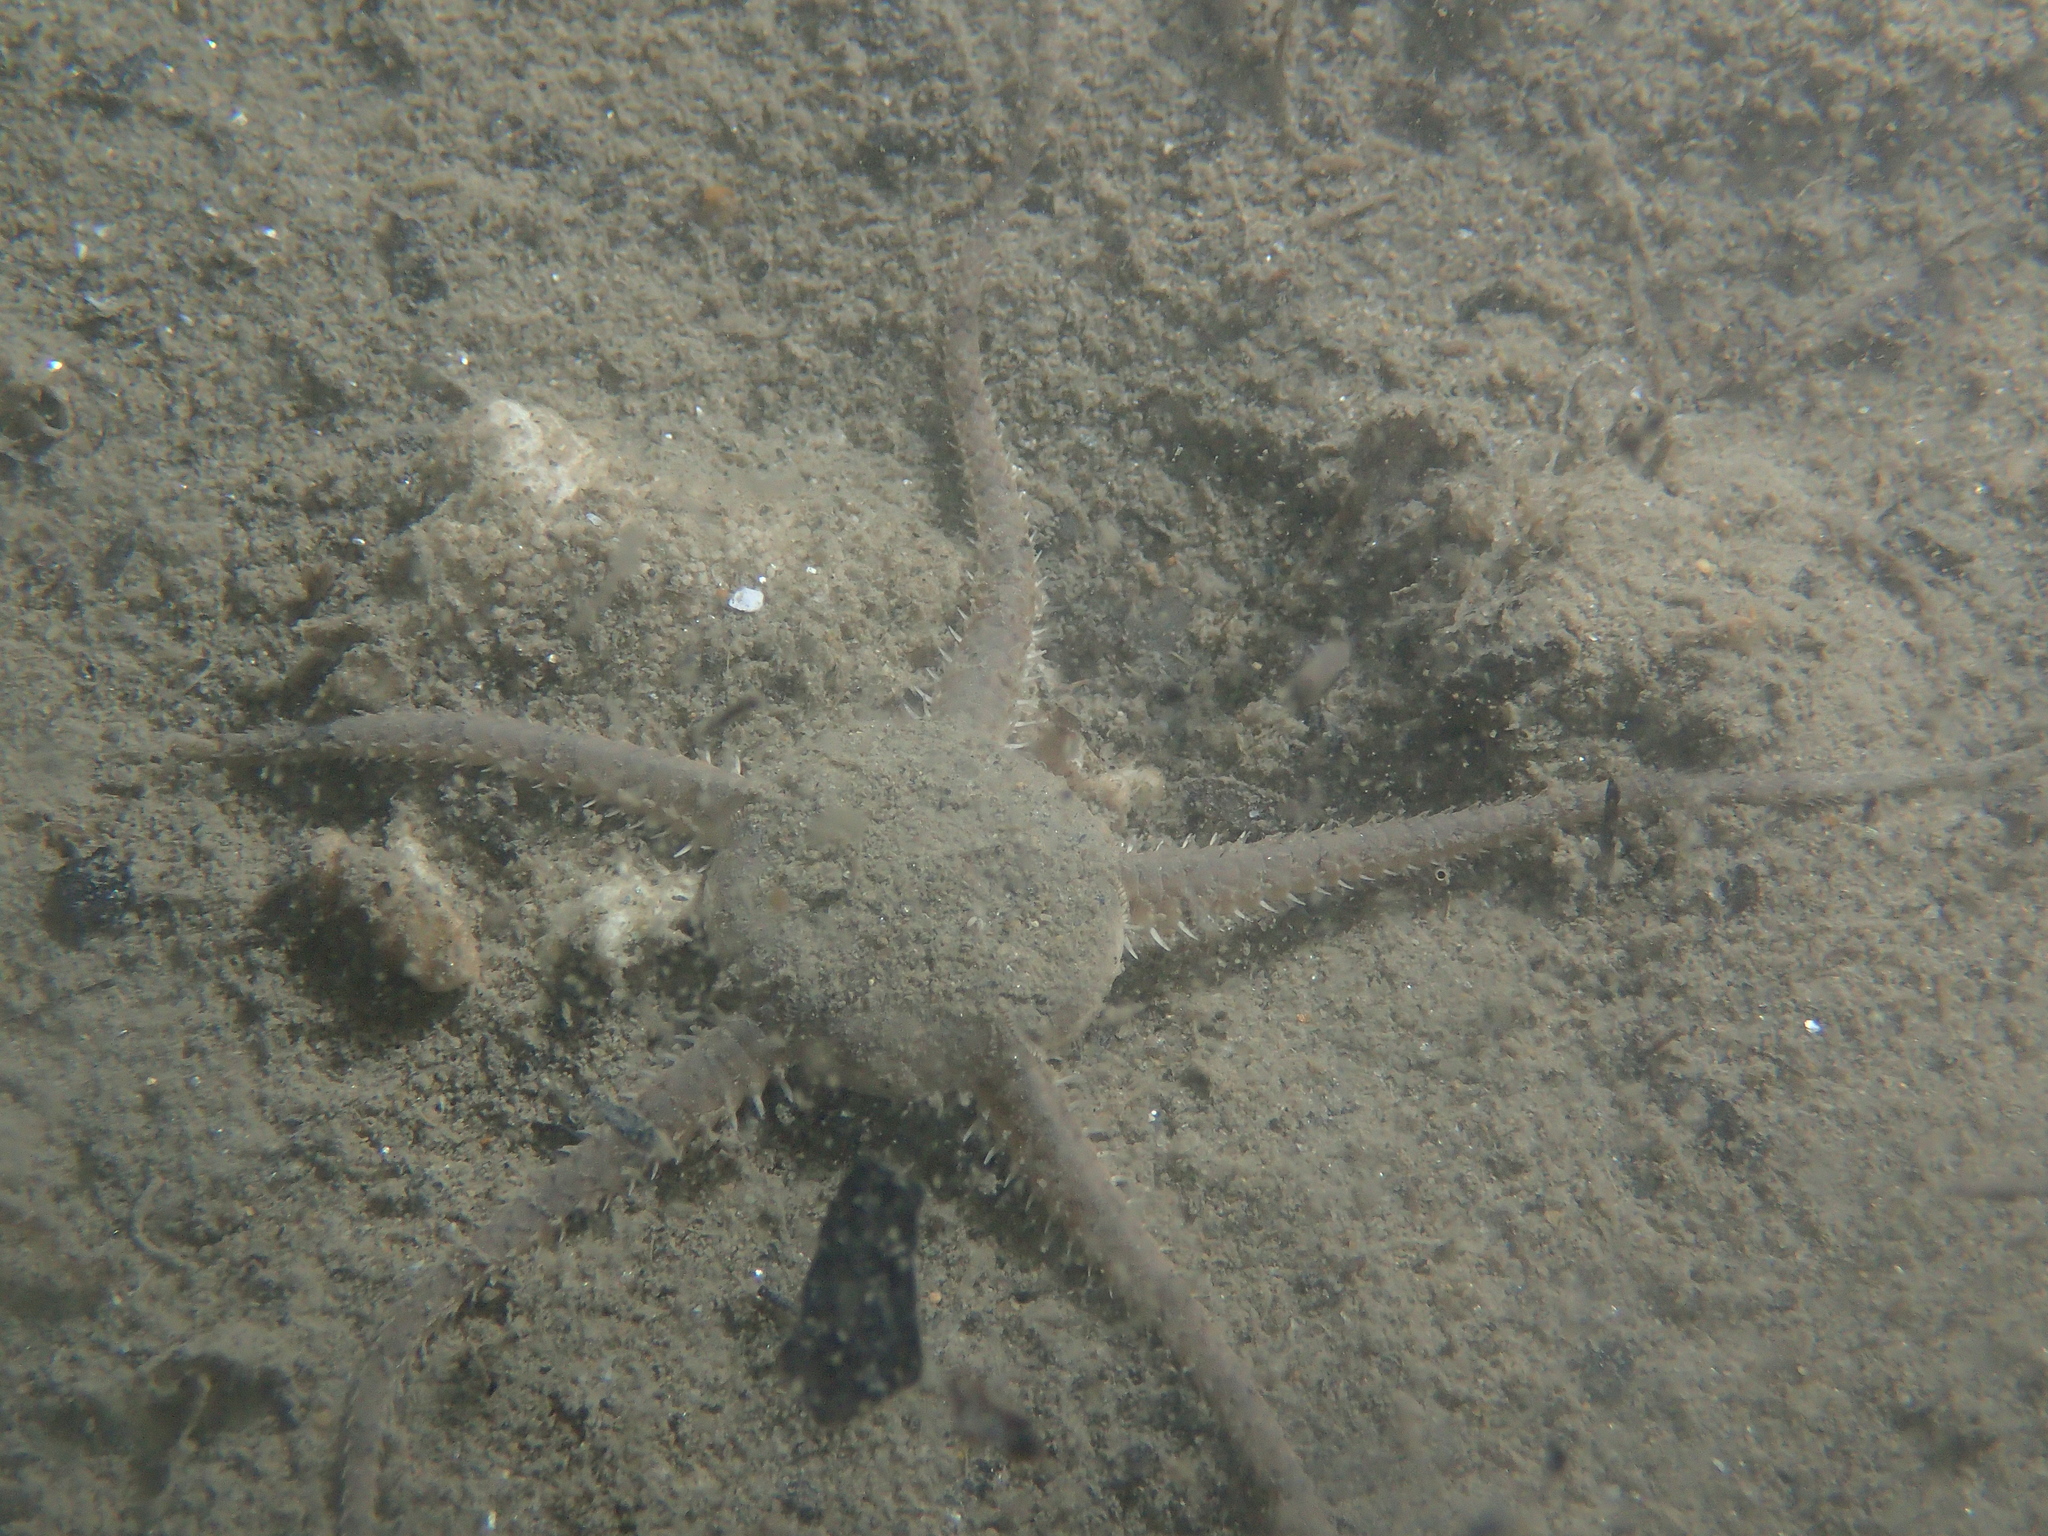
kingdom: Animalia
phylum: Echinodermata
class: Ophiuroidea
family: Ophiuridae
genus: Ophiura
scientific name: Ophiura ophiura
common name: Serpent star
